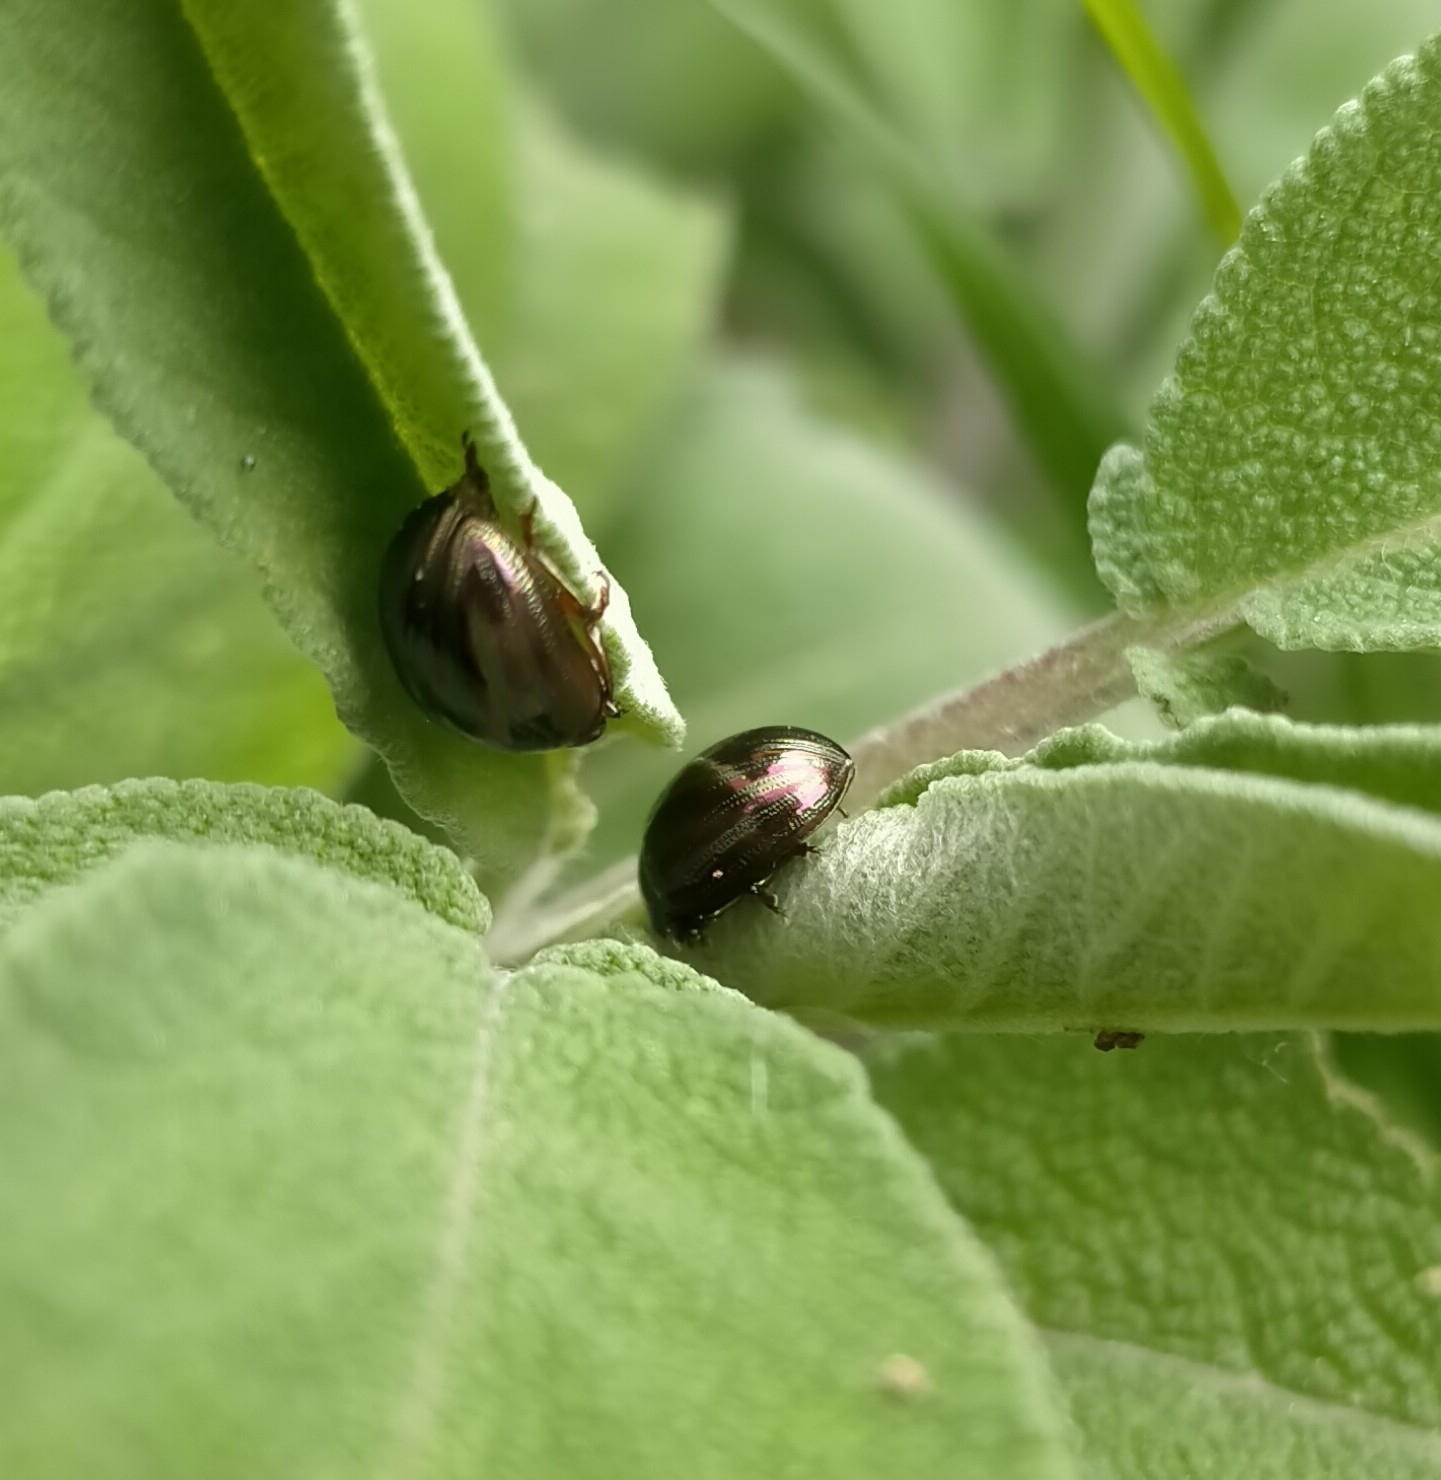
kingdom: Animalia
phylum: Arthropoda
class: Insecta
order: Coleoptera
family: Chrysomelidae
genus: Chrysolina
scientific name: Chrysolina americana
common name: Rosemary beetle
